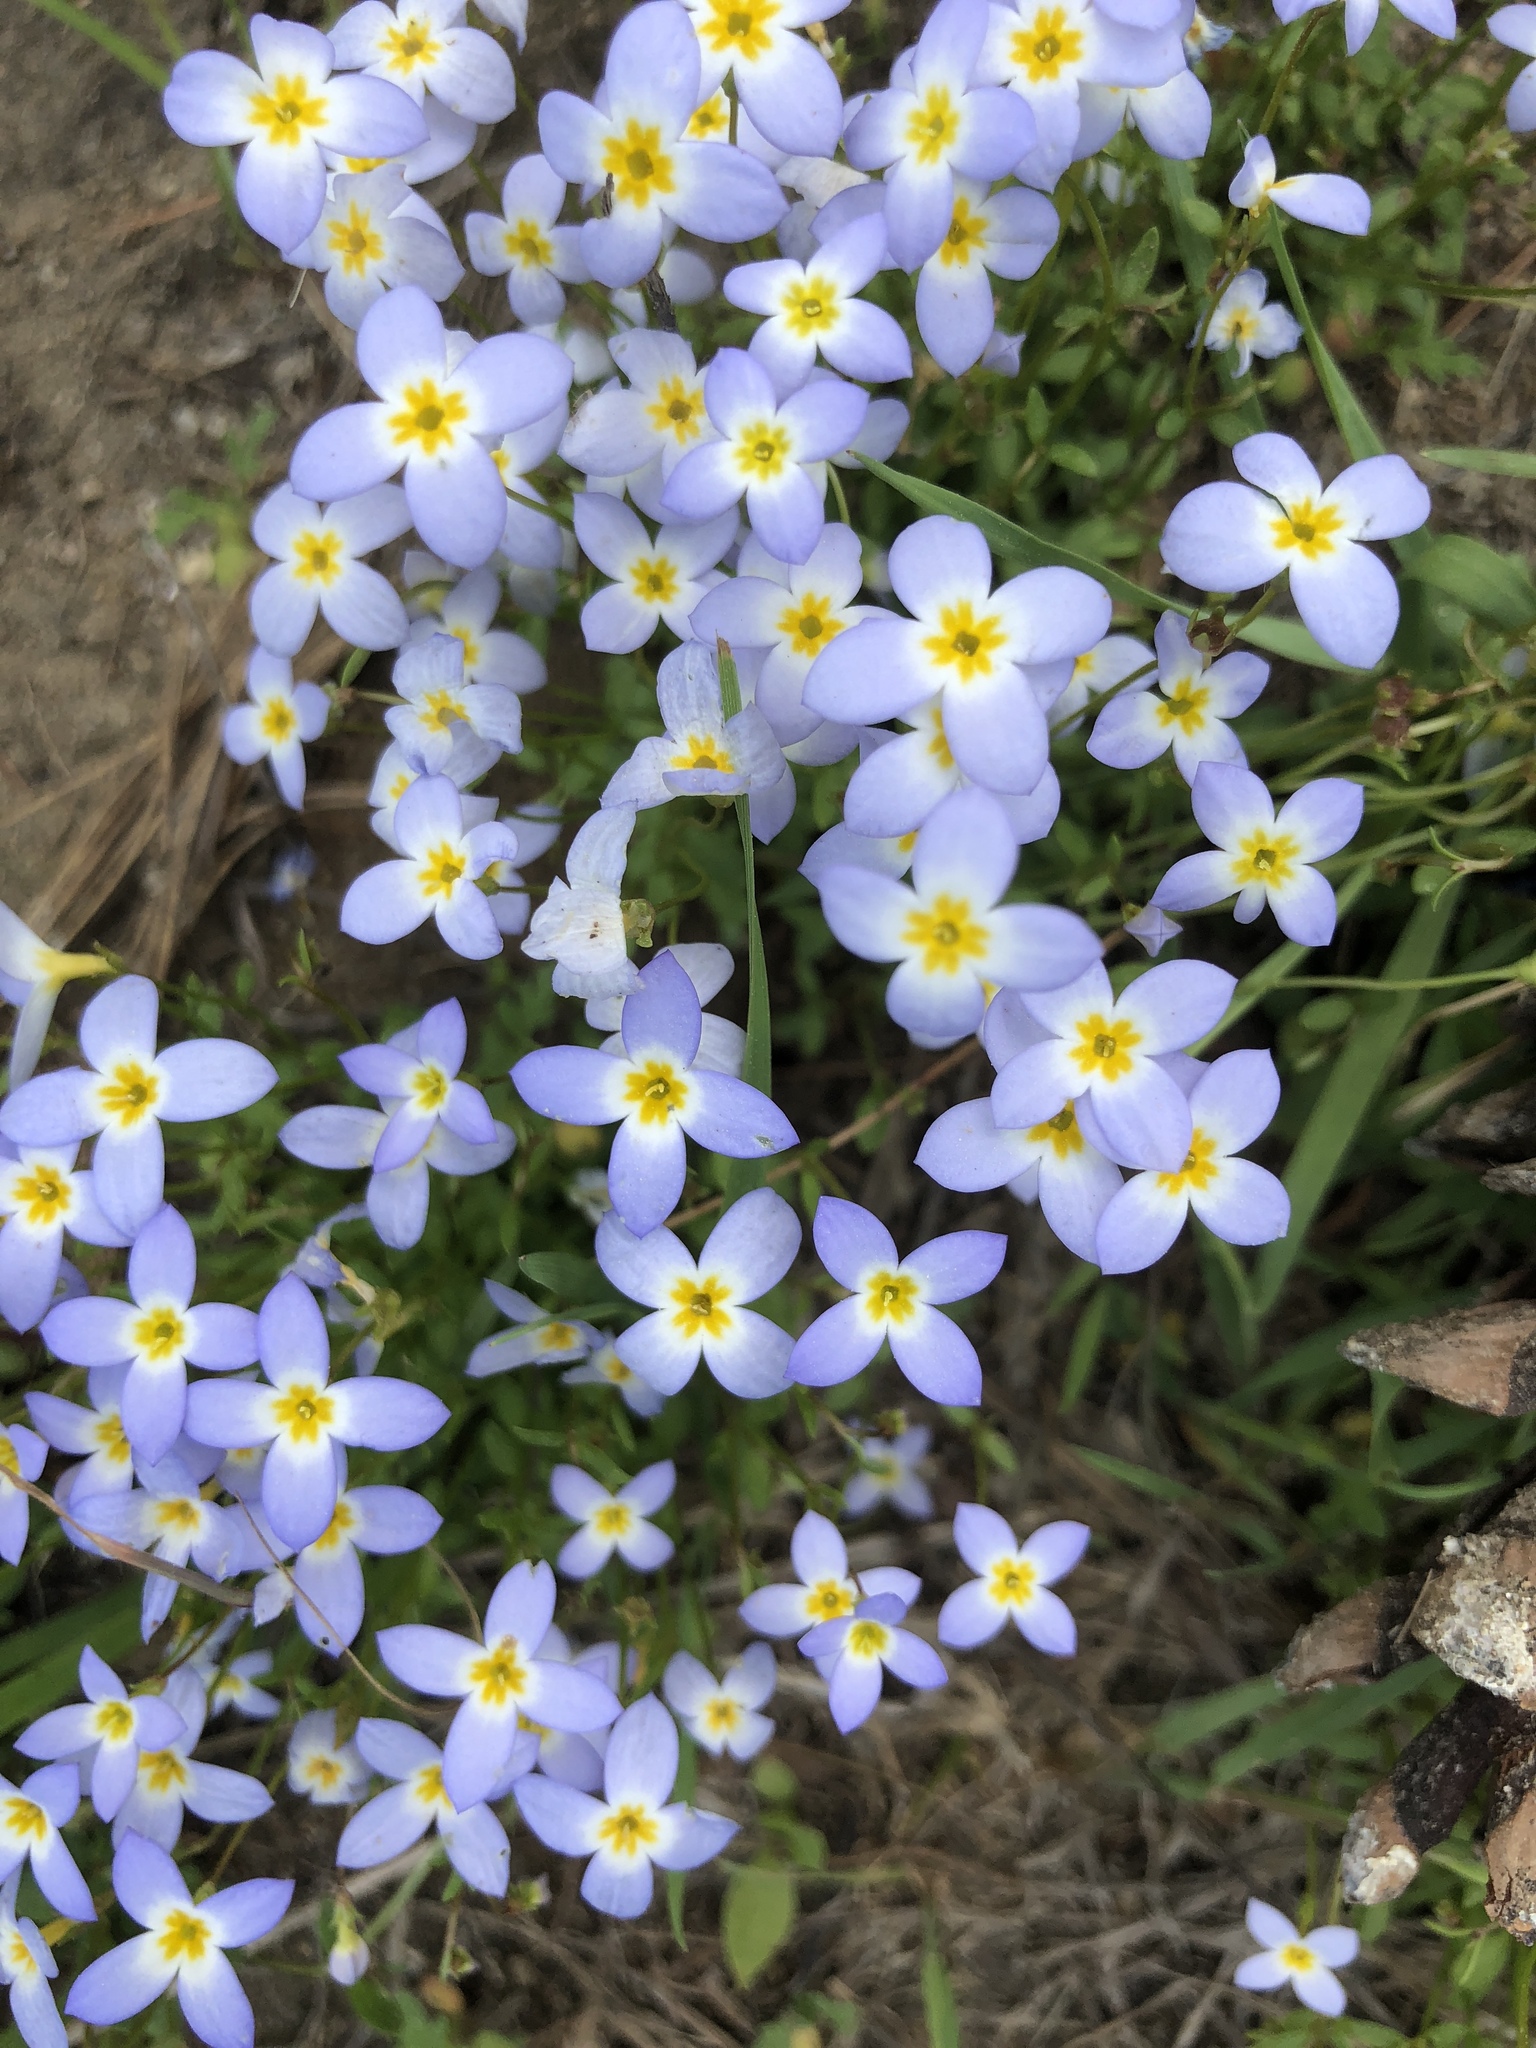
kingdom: Plantae
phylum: Tracheophyta
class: Magnoliopsida
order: Gentianales
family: Rubiaceae
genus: Houstonia
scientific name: Houstonia caerulea
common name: Bluets
